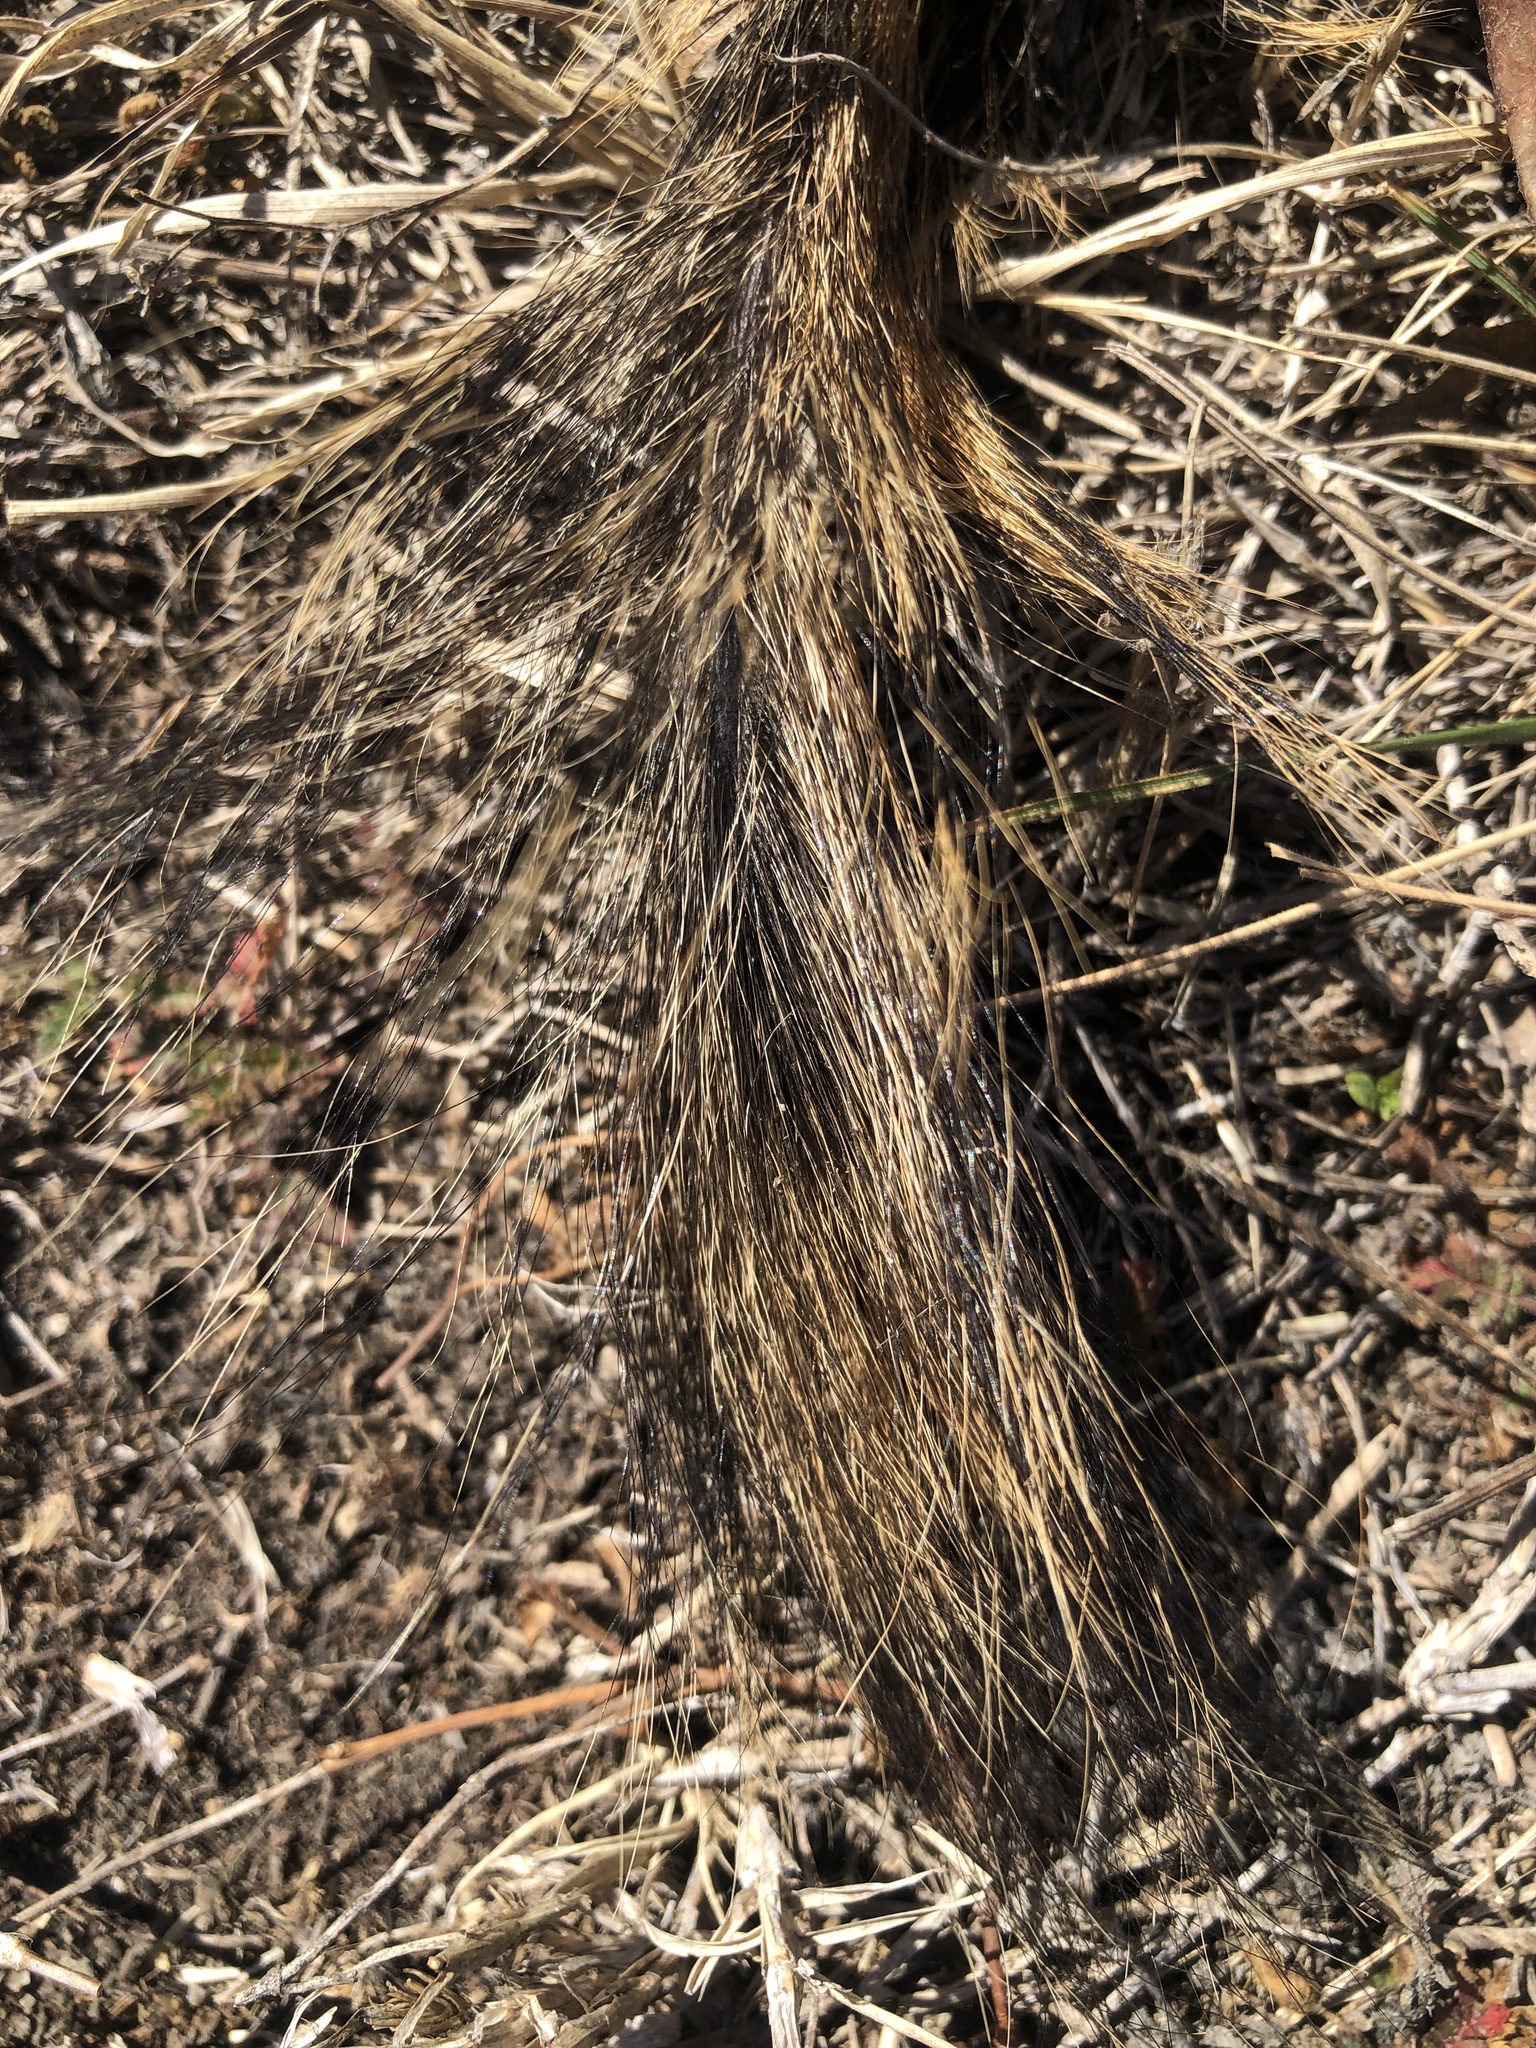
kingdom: Animalia
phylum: Chordata
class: Mammalia
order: Rodentia
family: Sciuridae
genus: Sciurus
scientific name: Sciurus niger
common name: Fox squirrel
